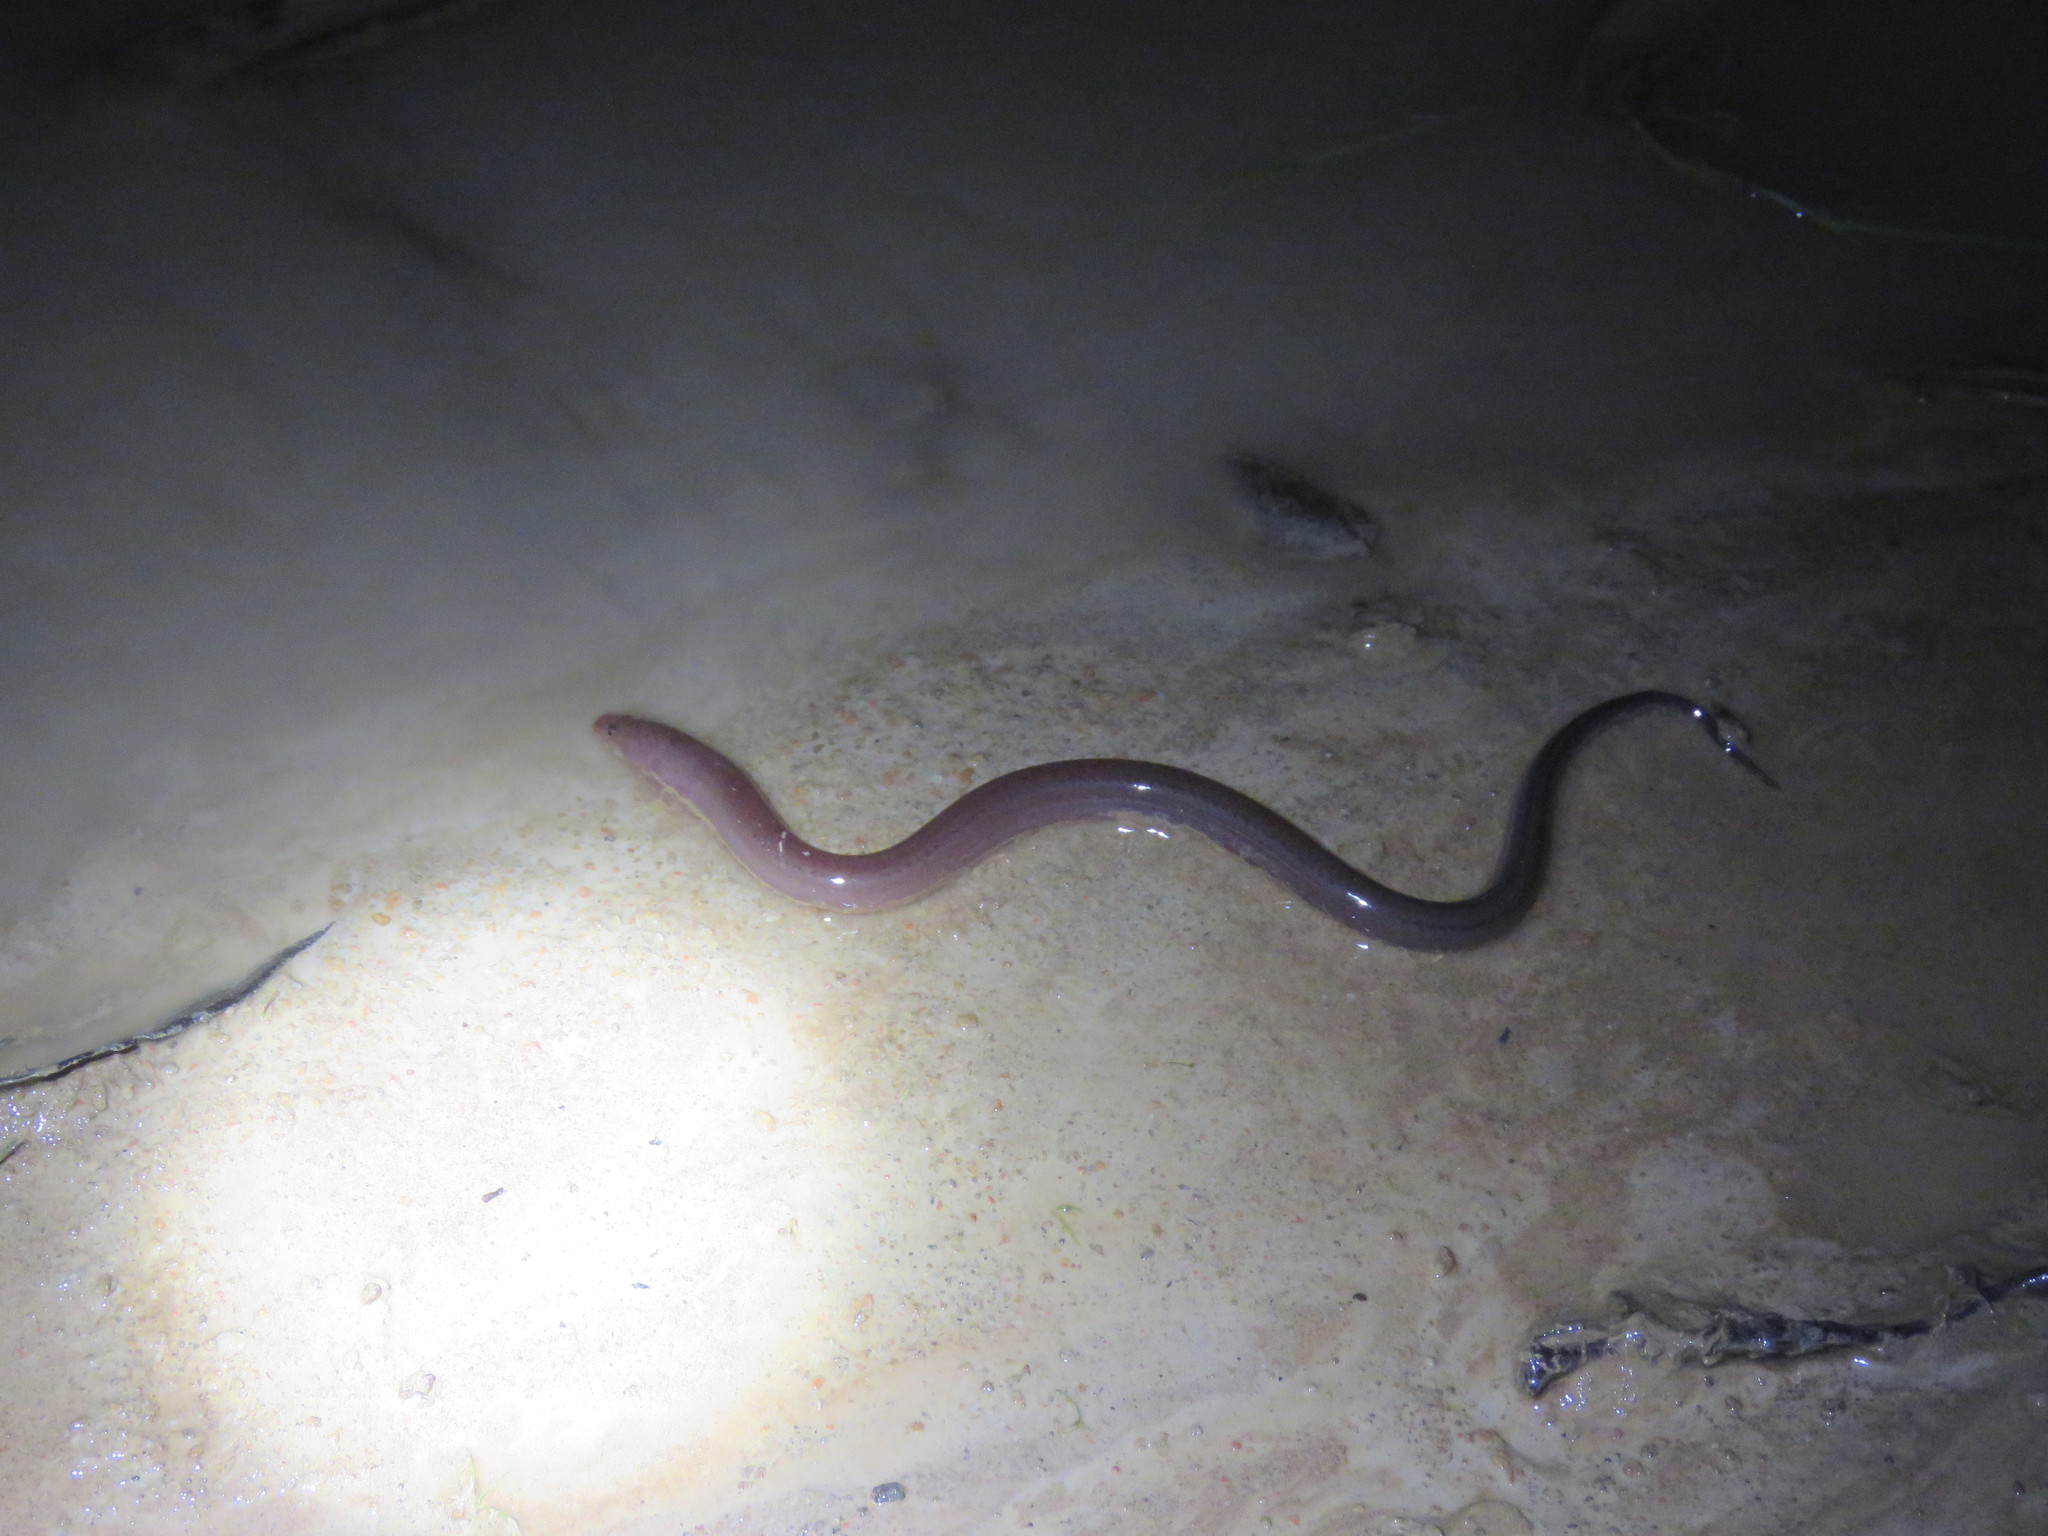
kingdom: Animalia
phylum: Chordata
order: Synbranchiformes
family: Synbranchidae
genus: Synbranchus
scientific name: Synbranchus marmoratus
